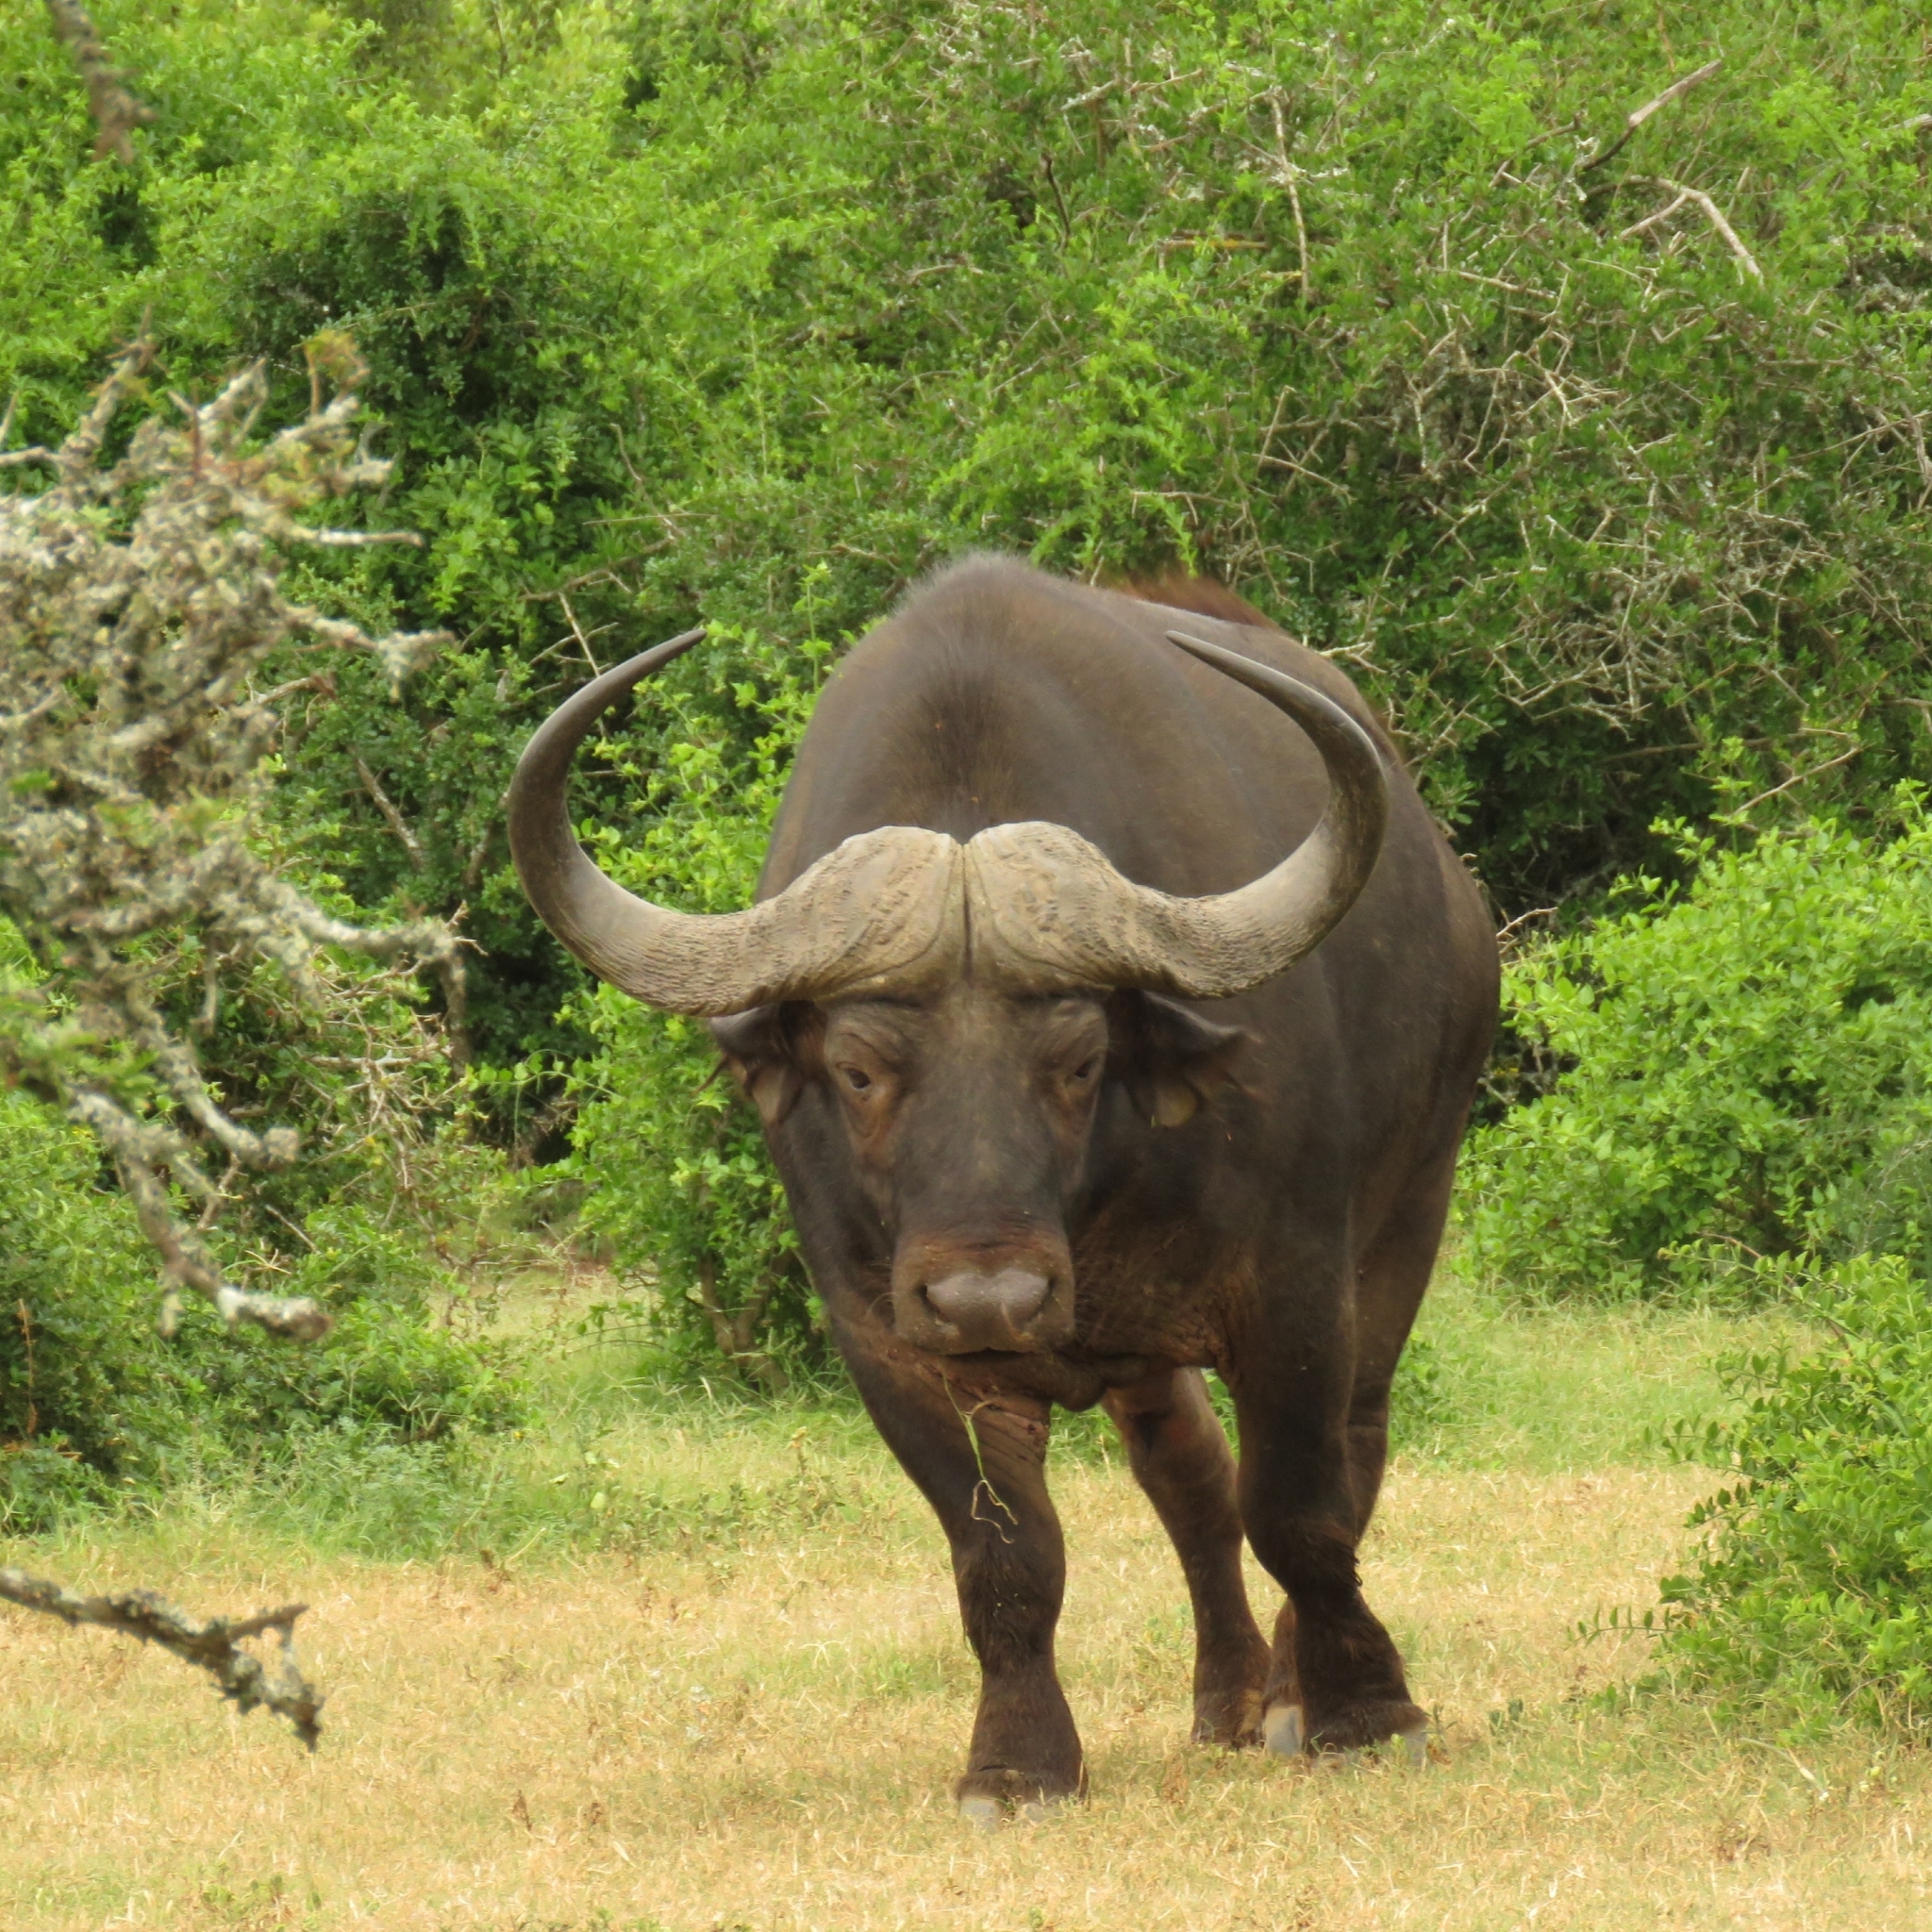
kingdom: Animalia
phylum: Chordata
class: Mammalia
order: Artiodactyla
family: Bovidae
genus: Syncerus
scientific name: Syncerus caffer
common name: African buffalo
